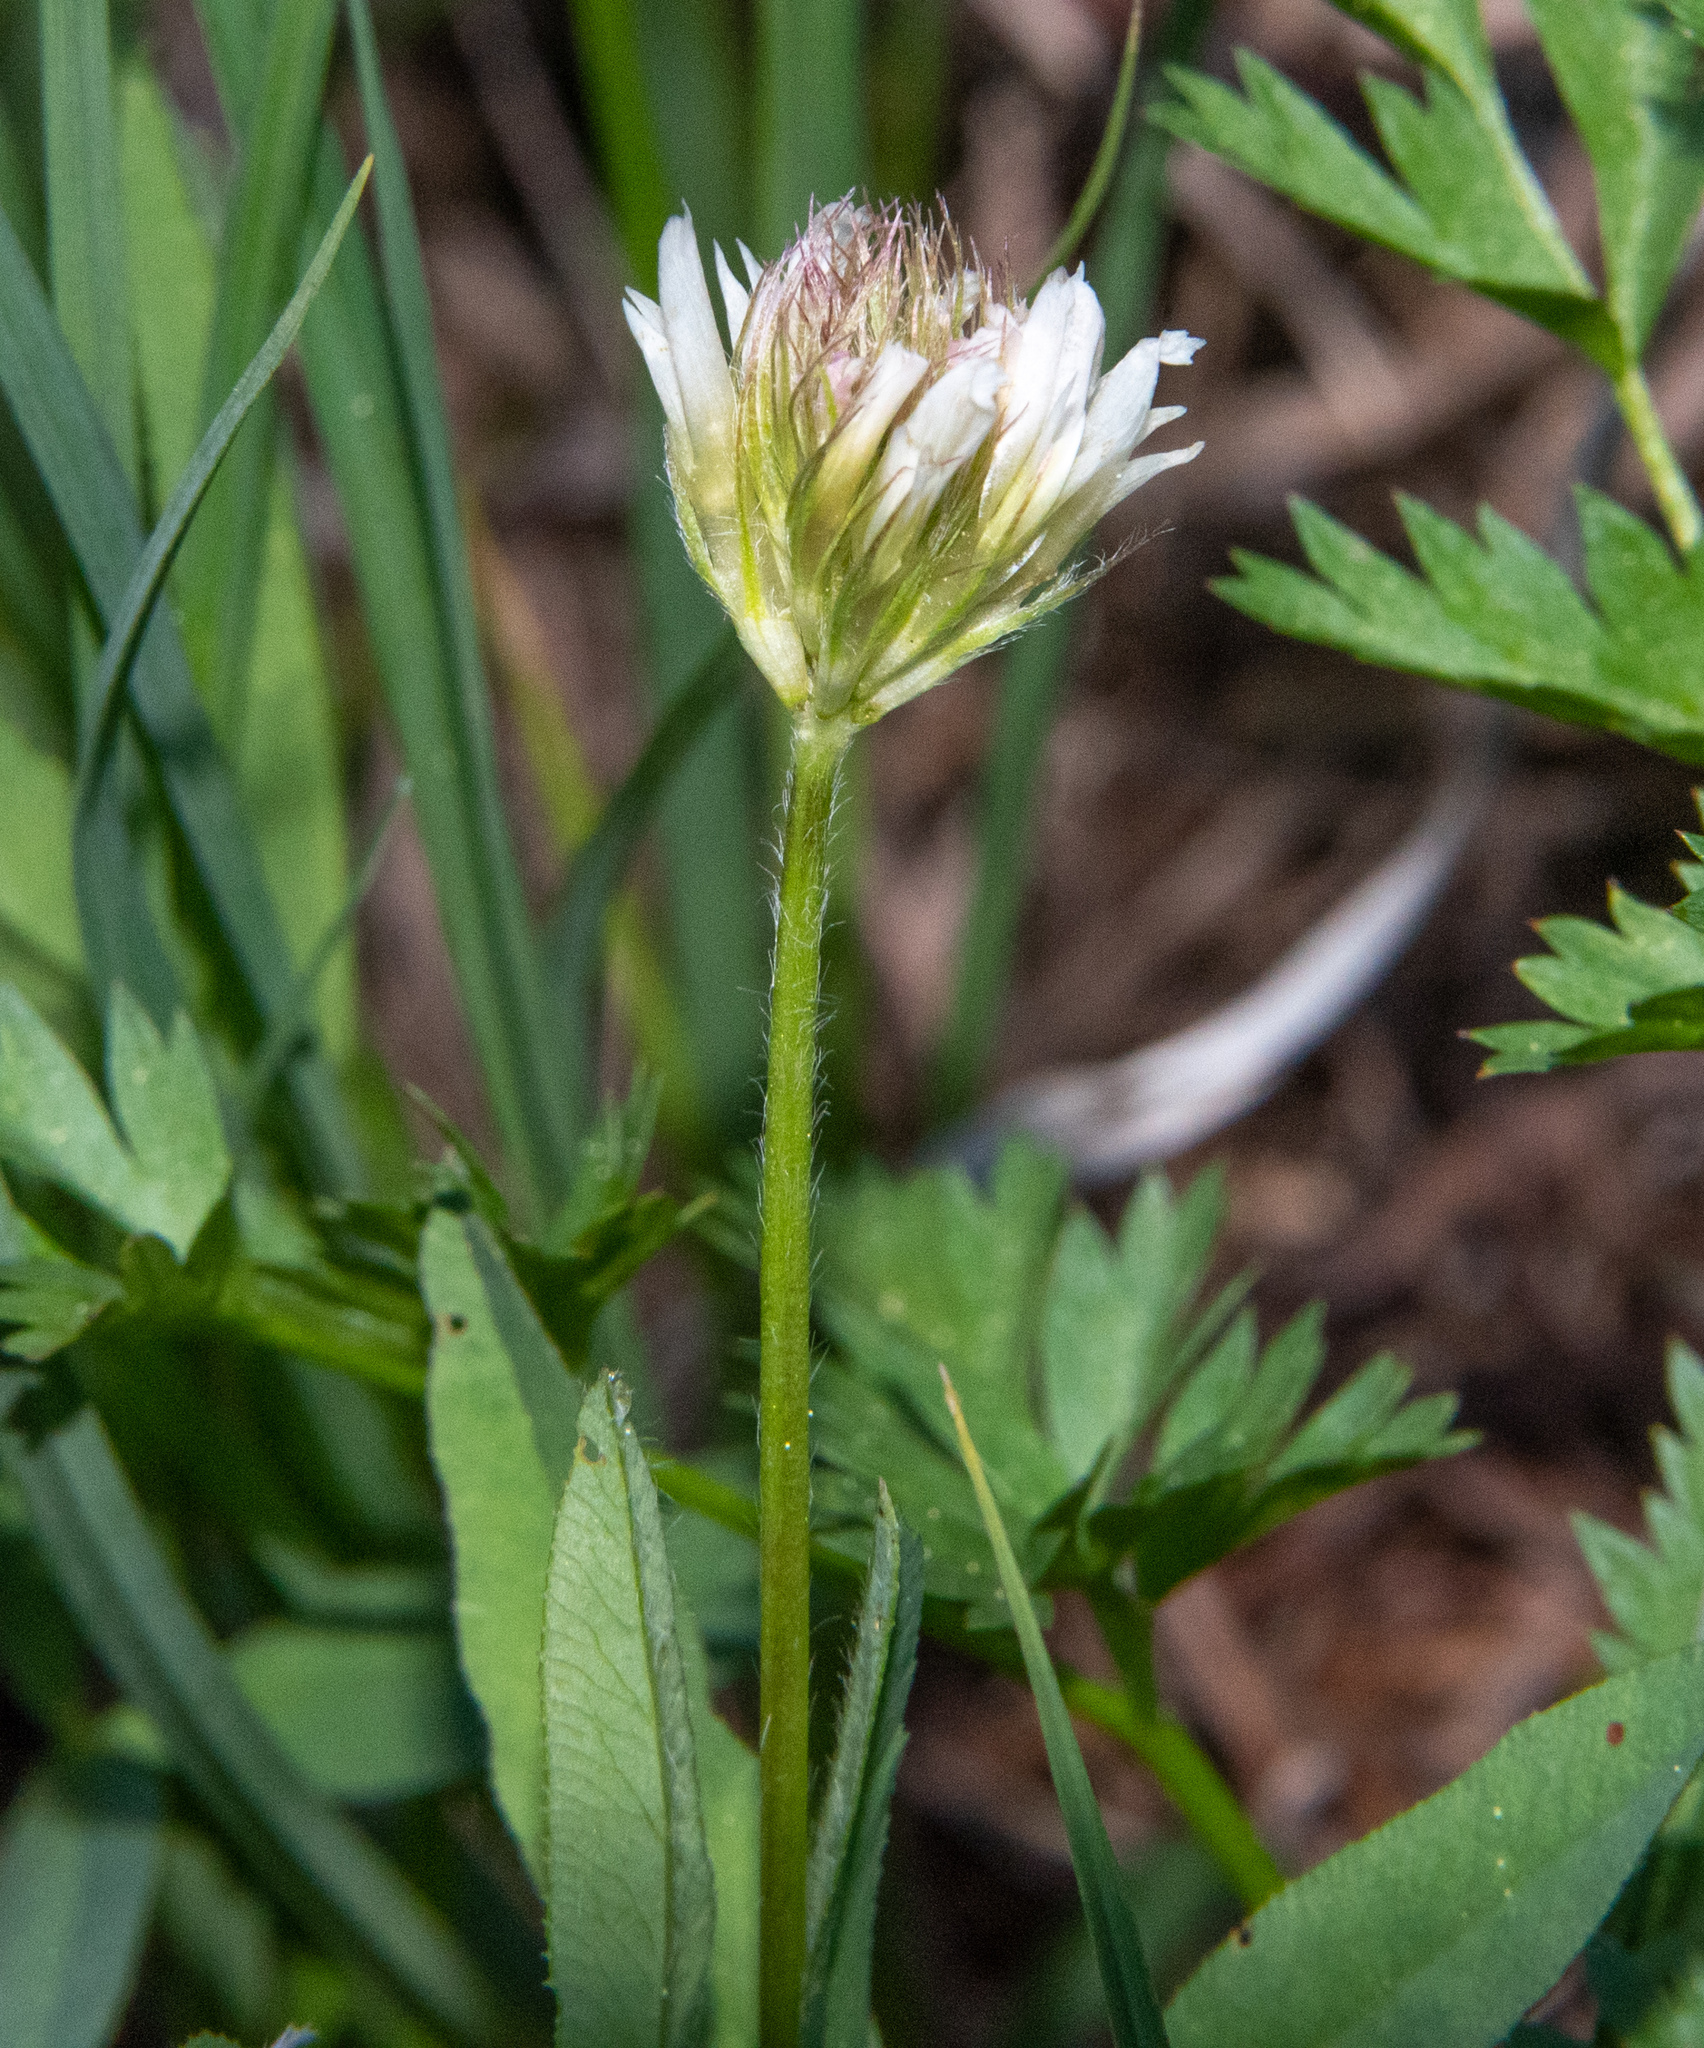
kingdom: Plantae
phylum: Tracheophyta
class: Magnoliopsida
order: Fabales
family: Fabaceae
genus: Trifolium
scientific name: Trifolium longipes
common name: Long-stalk clover
